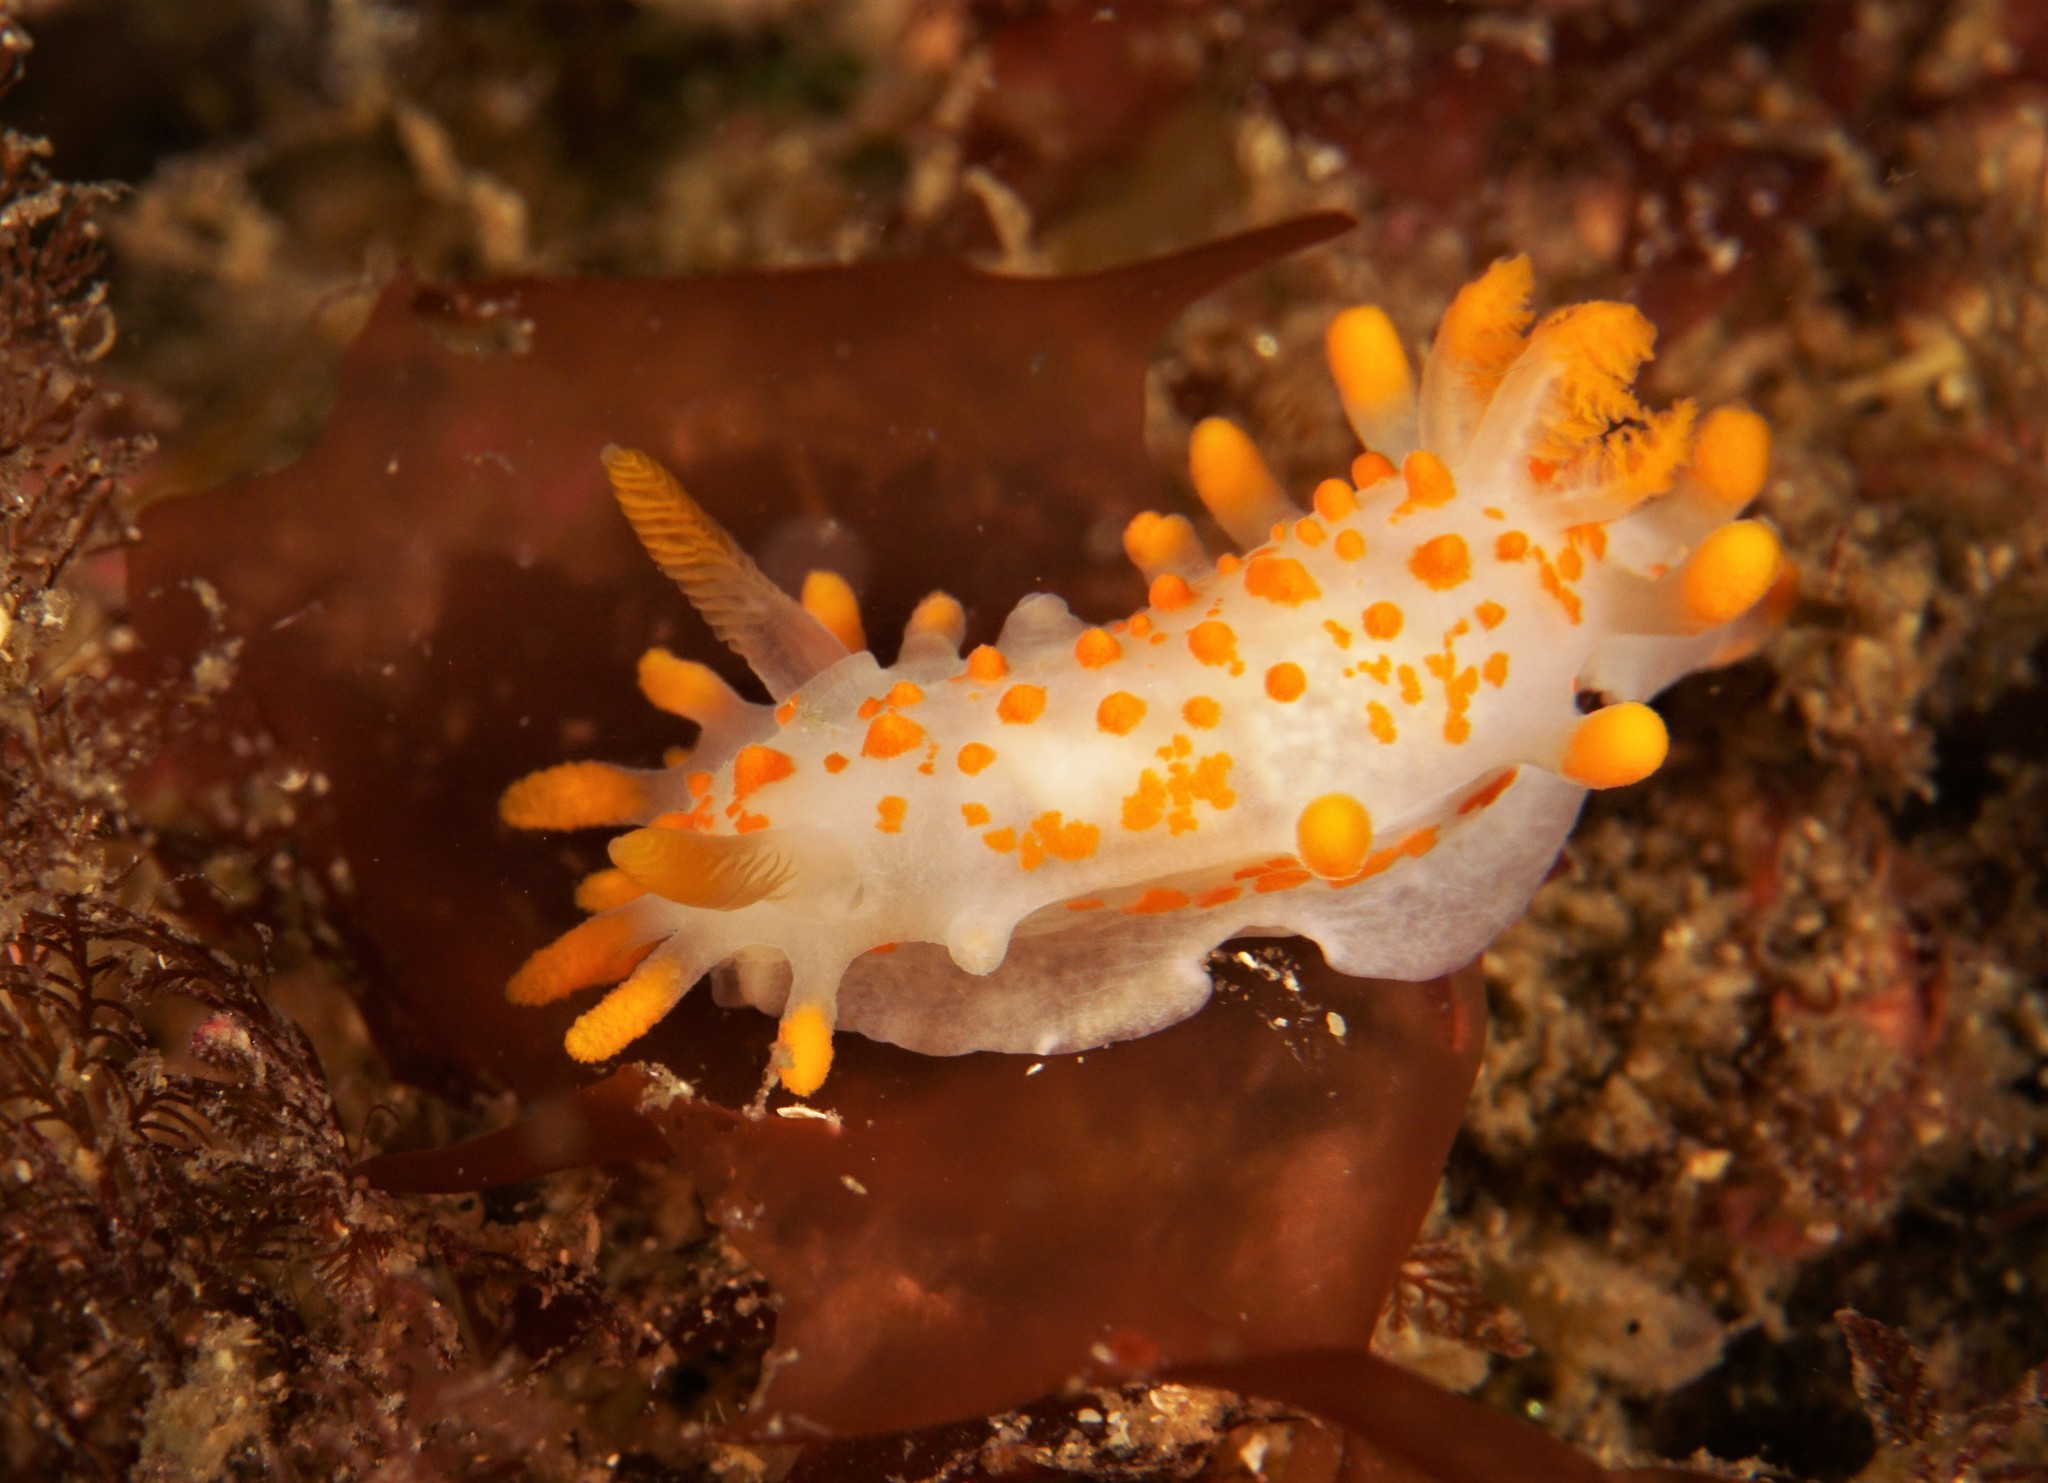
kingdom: Animalia
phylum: Mollusca
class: Gastropoda
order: Nudibranchia
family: Polyceridae
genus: Limacia
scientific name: Limacia clavigera
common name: Orange-clubbed sea slug
